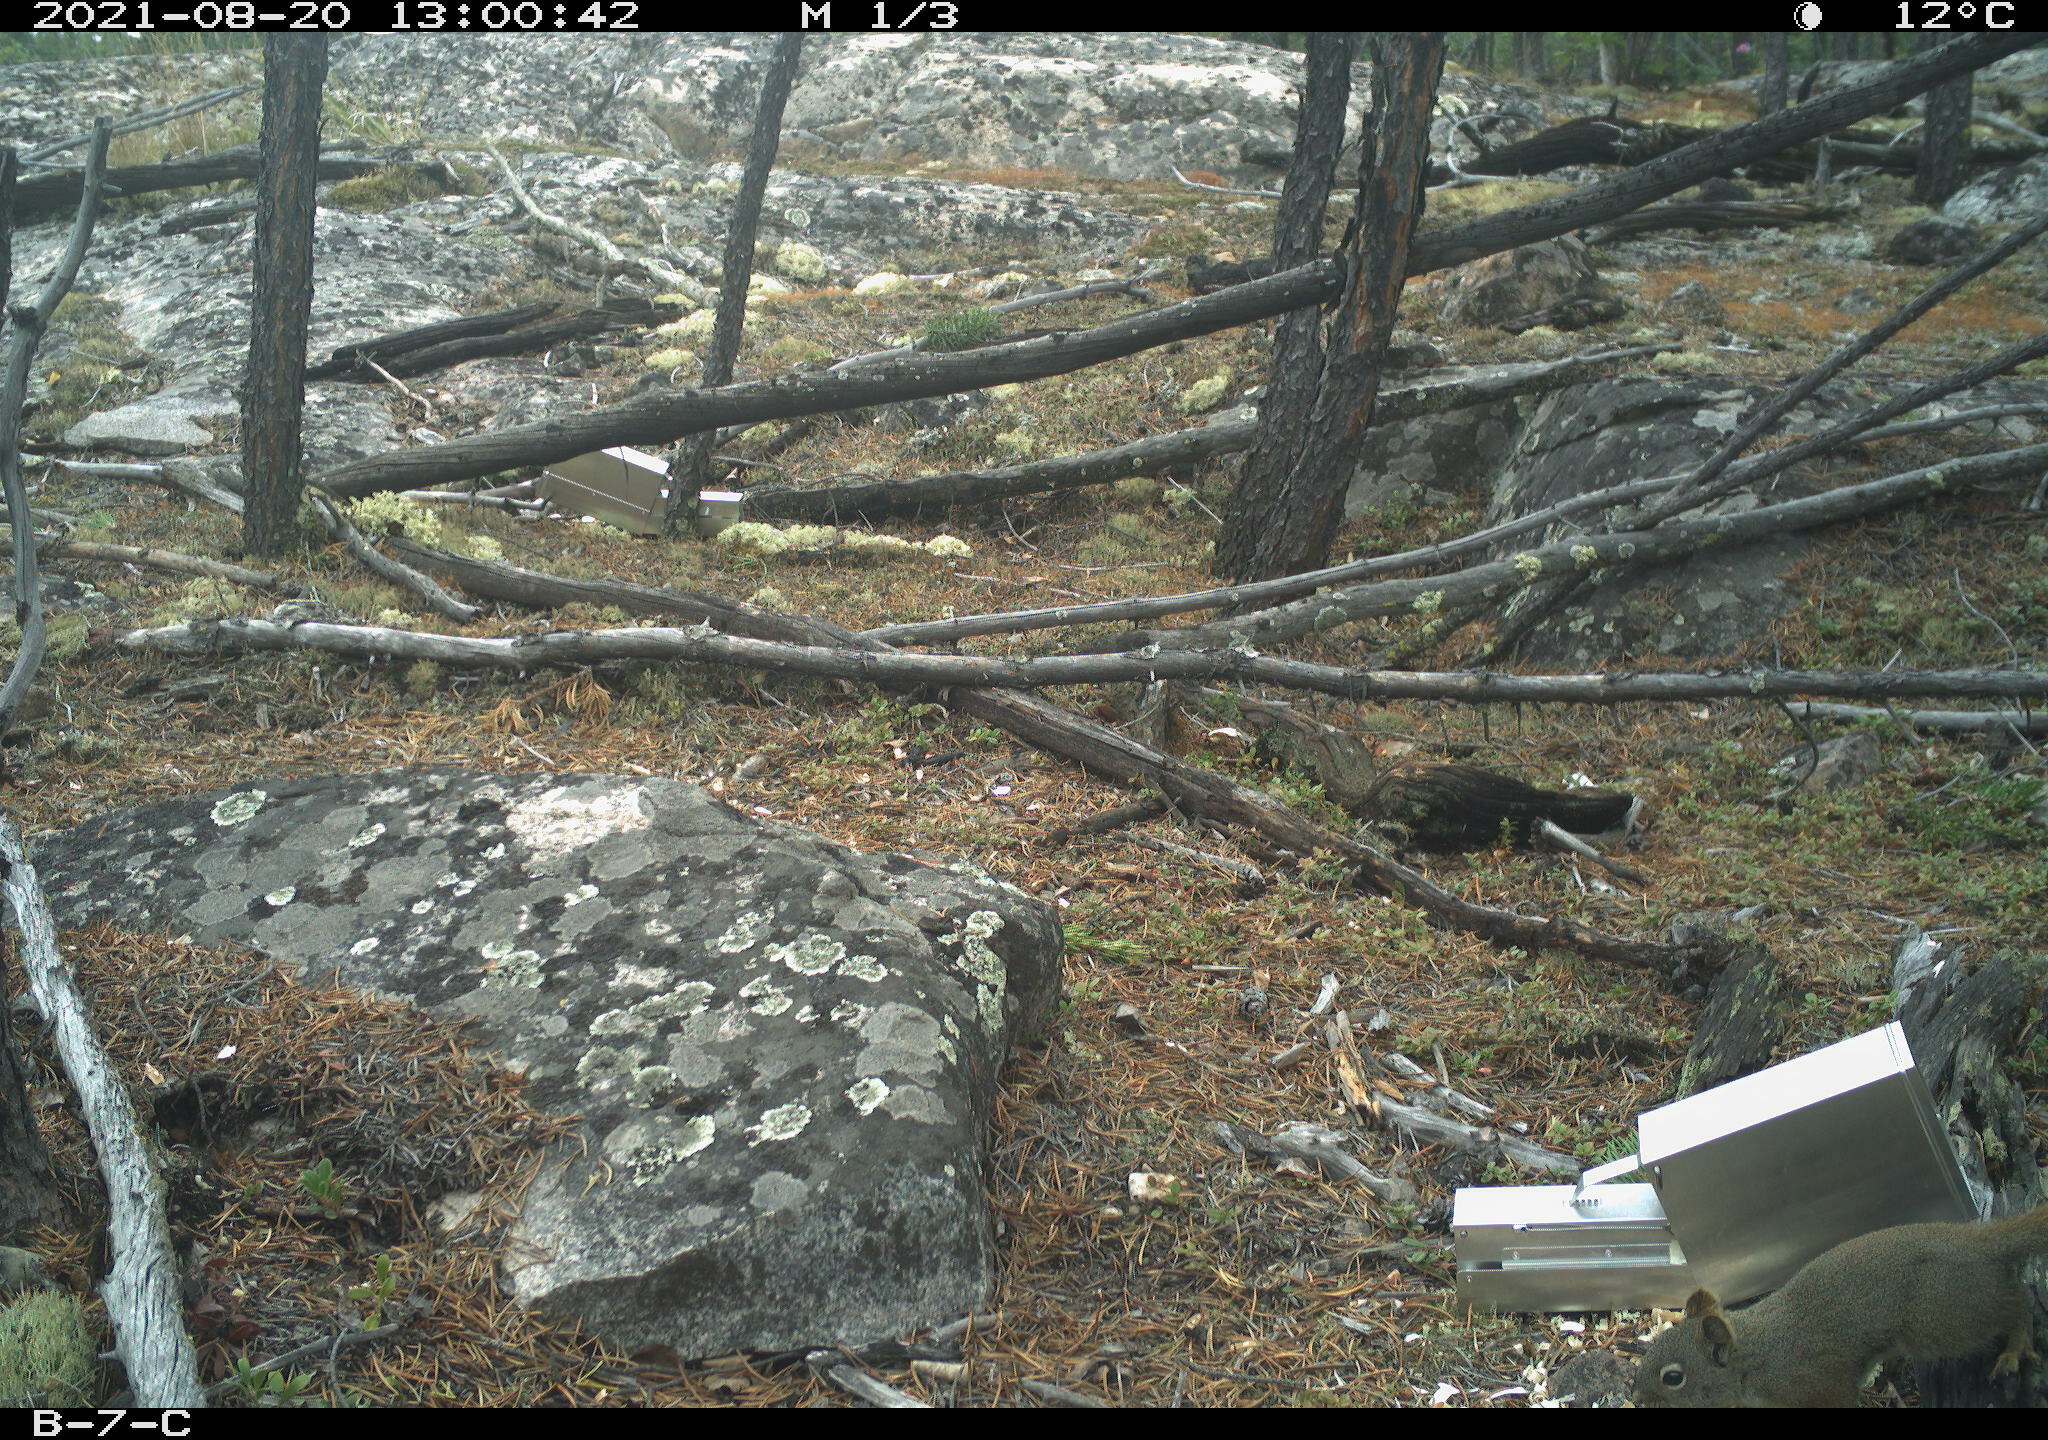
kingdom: Animalia
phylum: Chordata
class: Mammalia
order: Rodentia
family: Sciuridae
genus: Tamiasciurus
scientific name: Tamiasciurus hudsonicus
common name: Red squirrel
